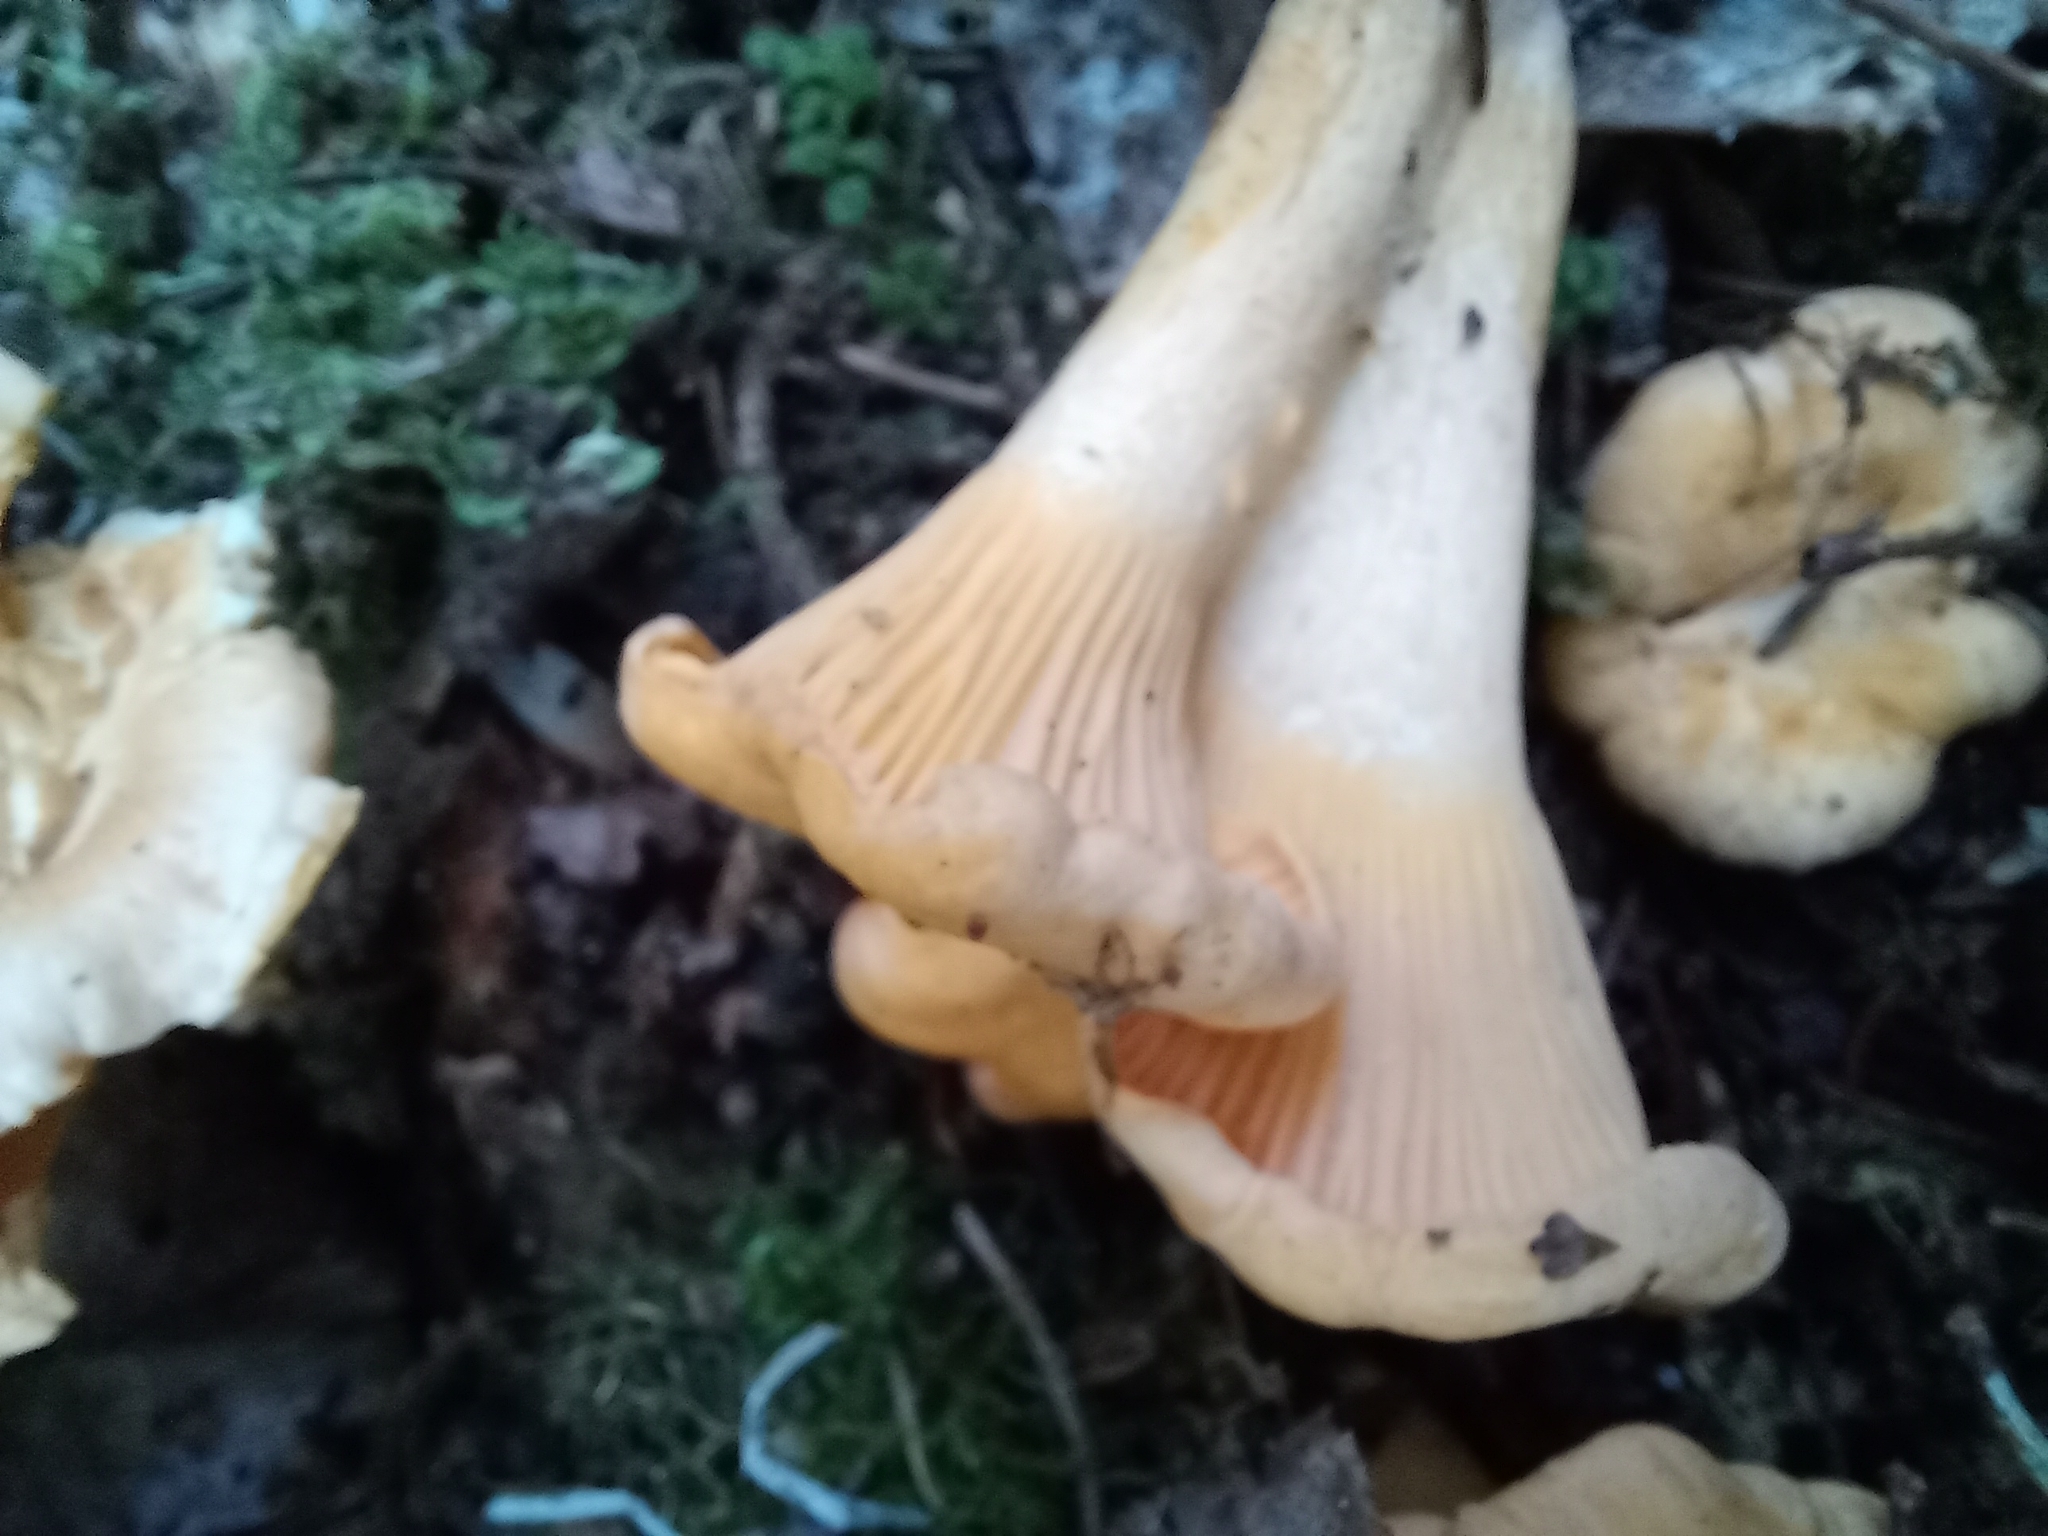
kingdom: Fungi
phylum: Basidiomycota
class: Agaricomycetes
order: Cantharellales
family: Hydnaceae
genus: Cantharellus
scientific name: Cantharellus cibarius
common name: Chanterelle
